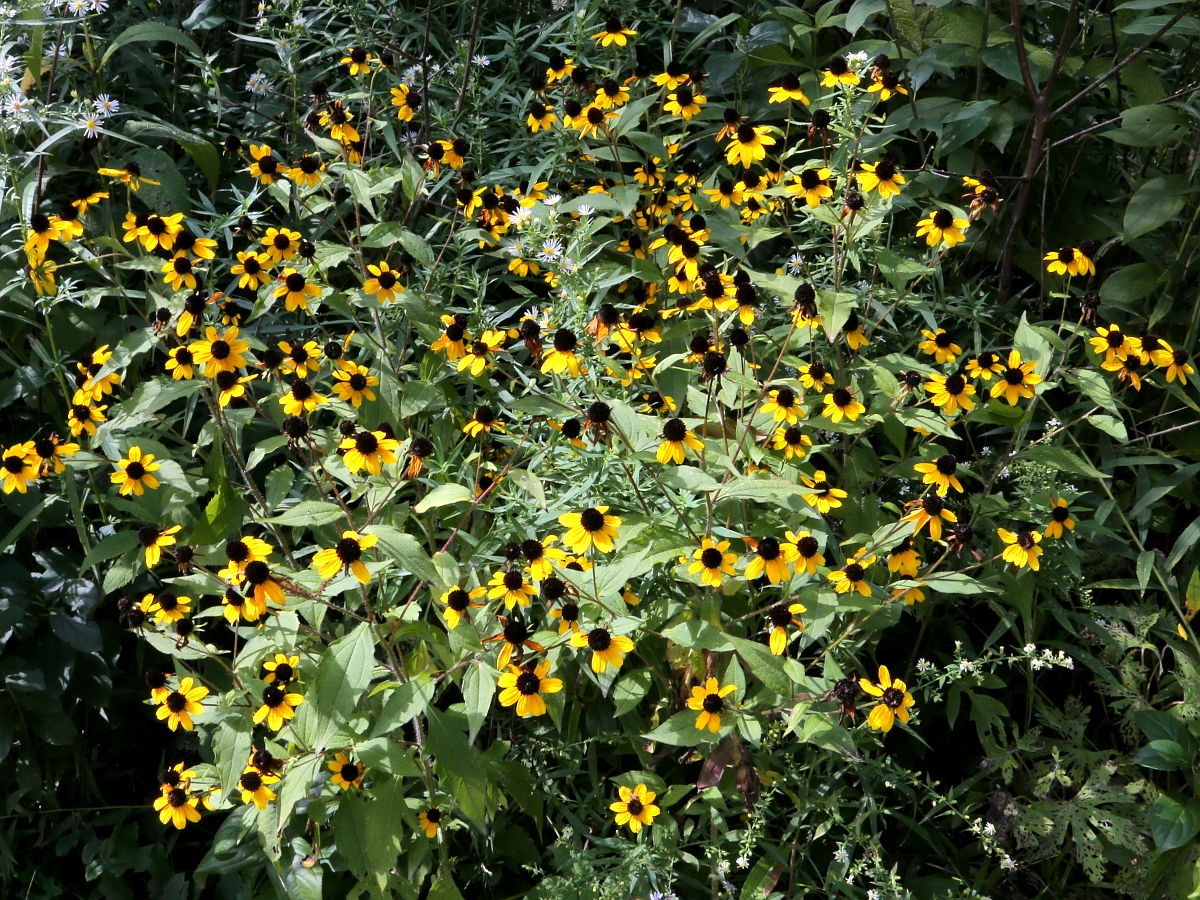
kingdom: Plantae
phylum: Tracheophyta
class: Magnoliopsida
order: Asterales
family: Asteraceae
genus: Rudbeckia
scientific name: Rudbeckia triloba
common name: Thin-leaved coneflower
